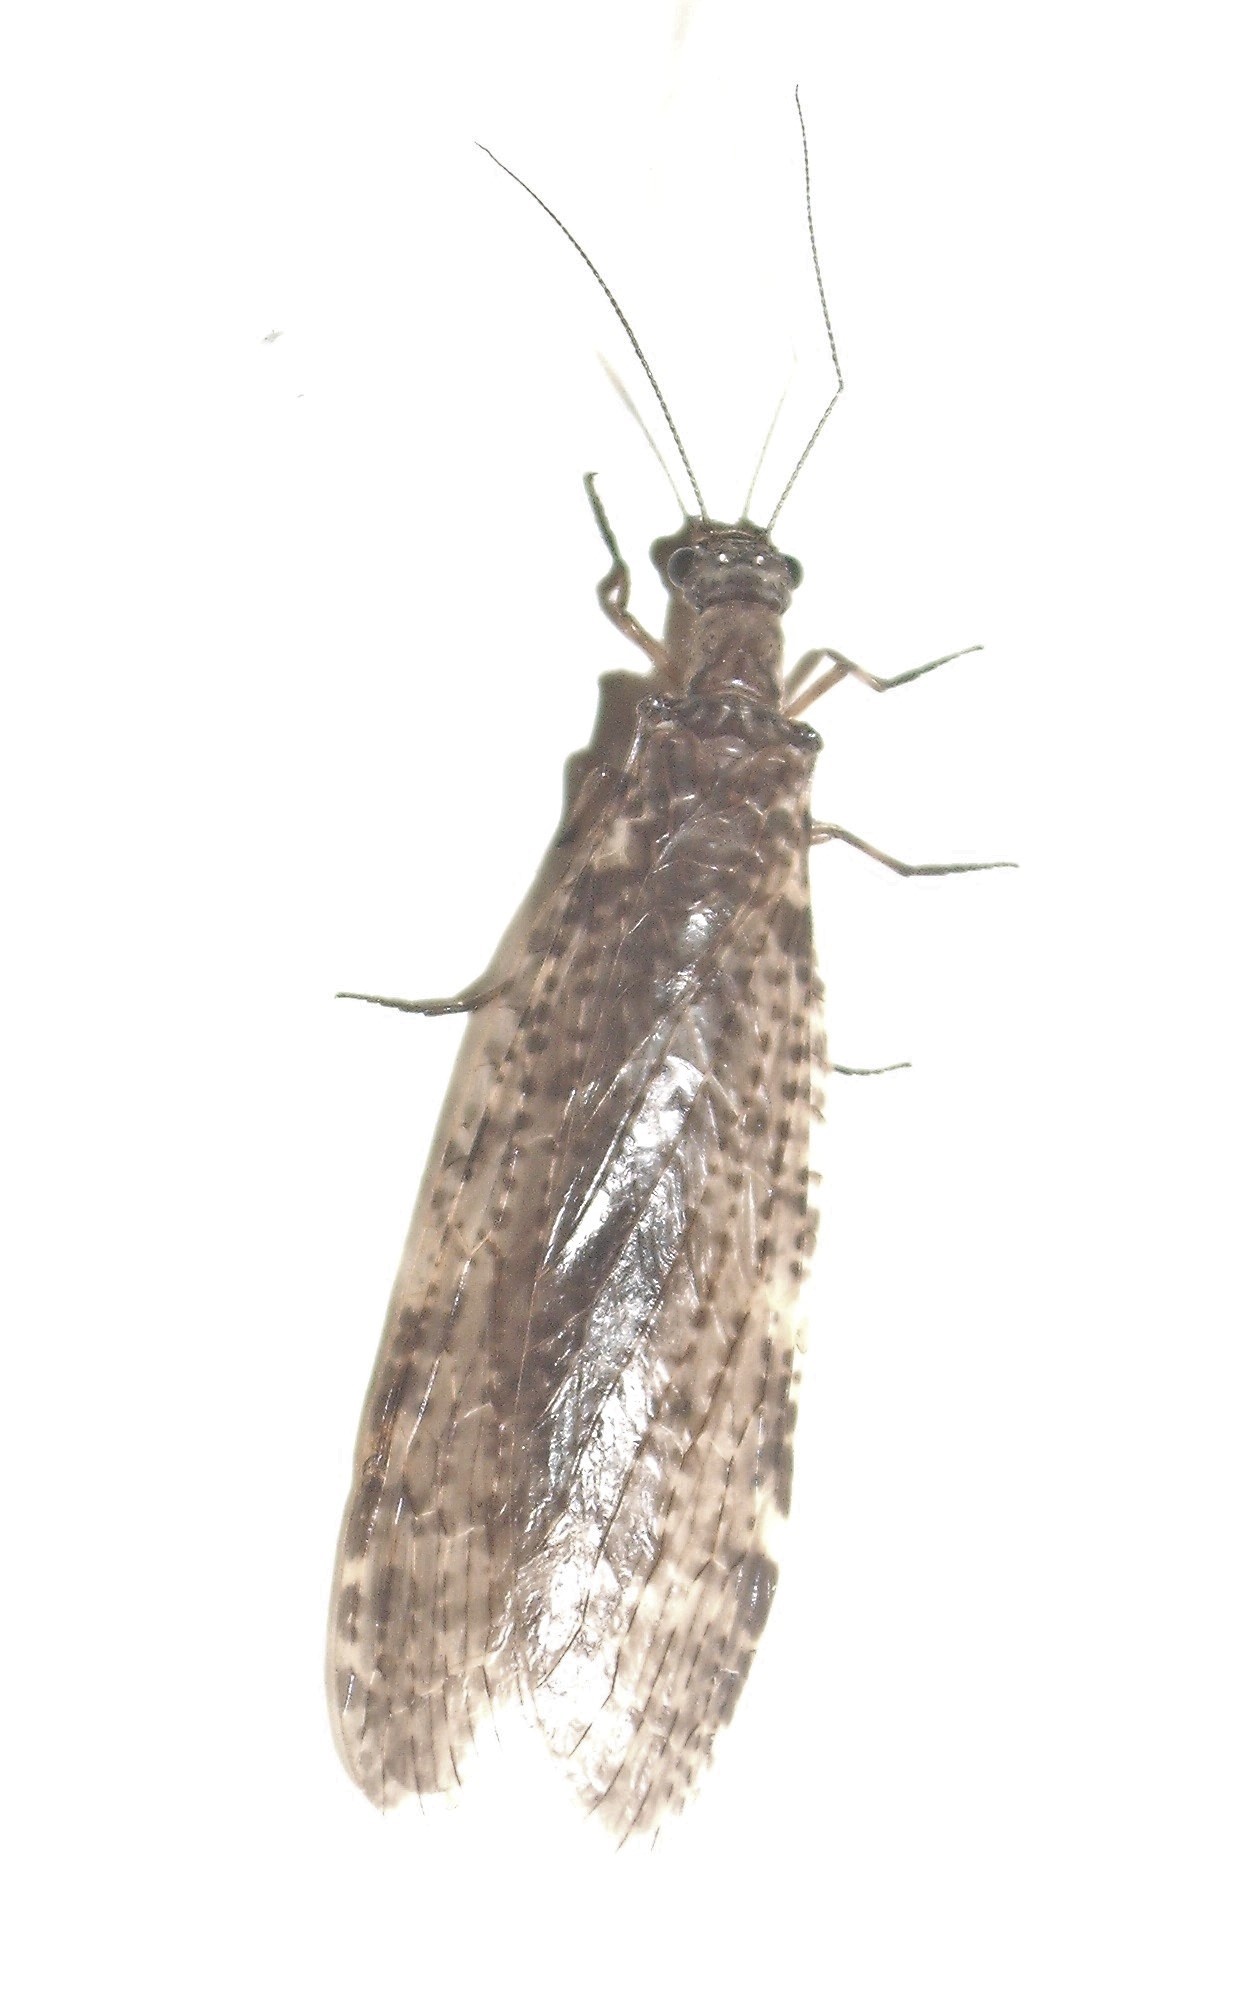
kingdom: Animalia
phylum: Arthropoda
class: Insecta
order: Megaloptera
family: Corydalidae
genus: Archichauliodes
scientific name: Archichauliodes diversus
